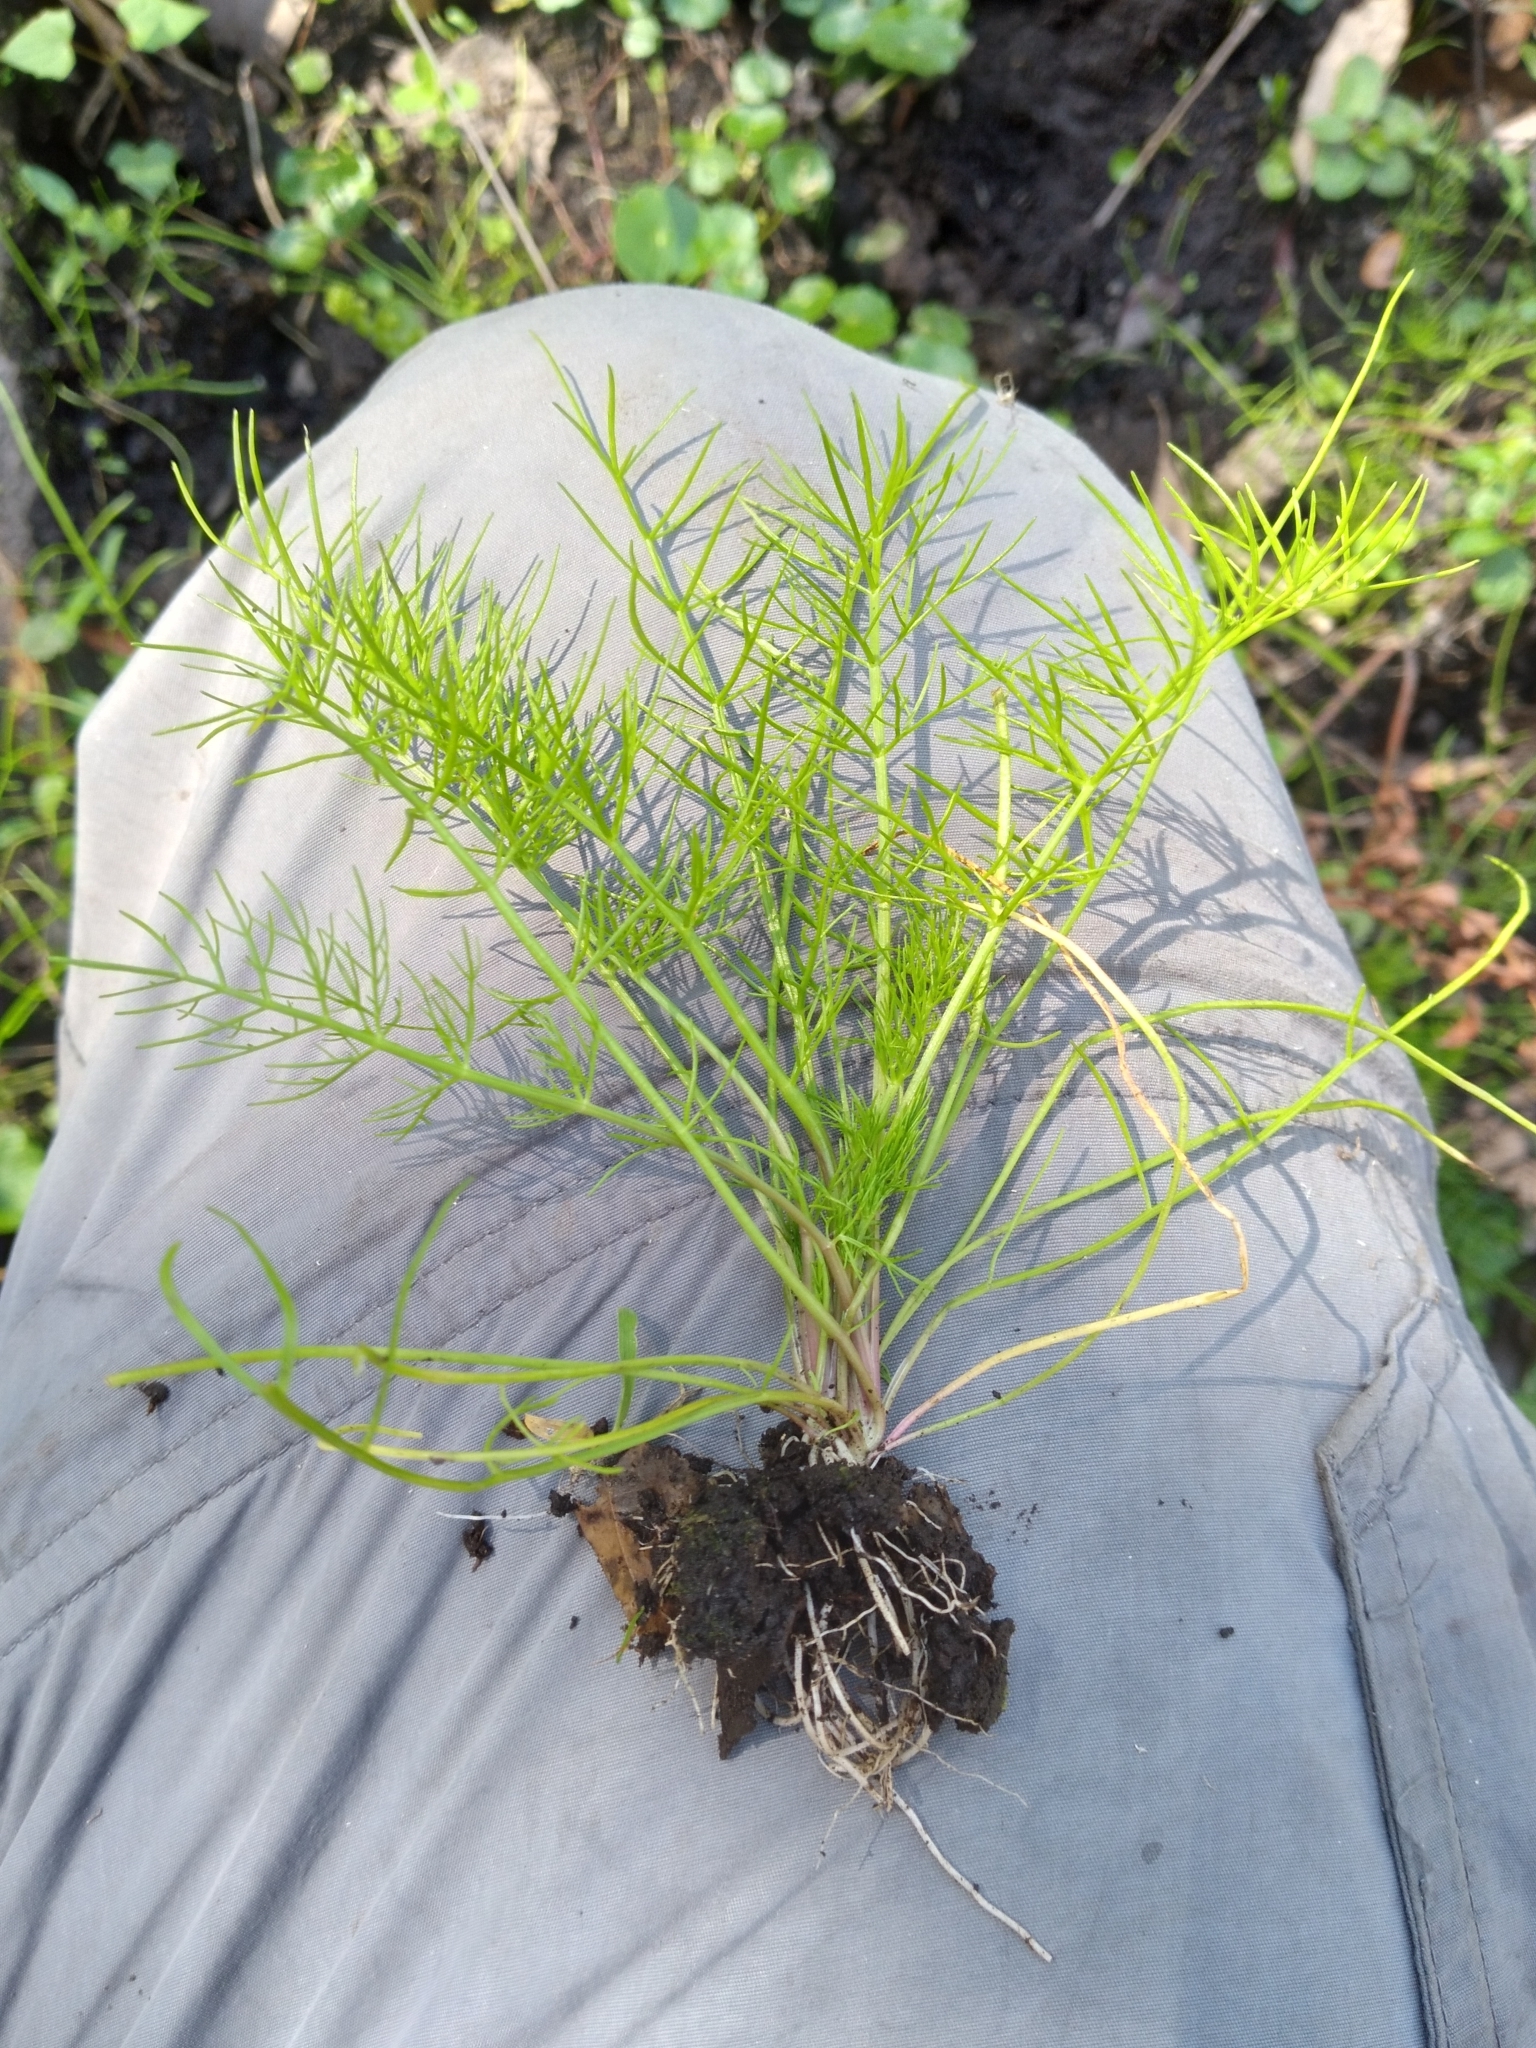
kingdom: Plantae
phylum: Tracheophyta
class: Magnoliopsida
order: Apiales
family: Apiaceae
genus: Ptilimnium
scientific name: Ptilimnium capillaceum
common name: Herbwilliam
